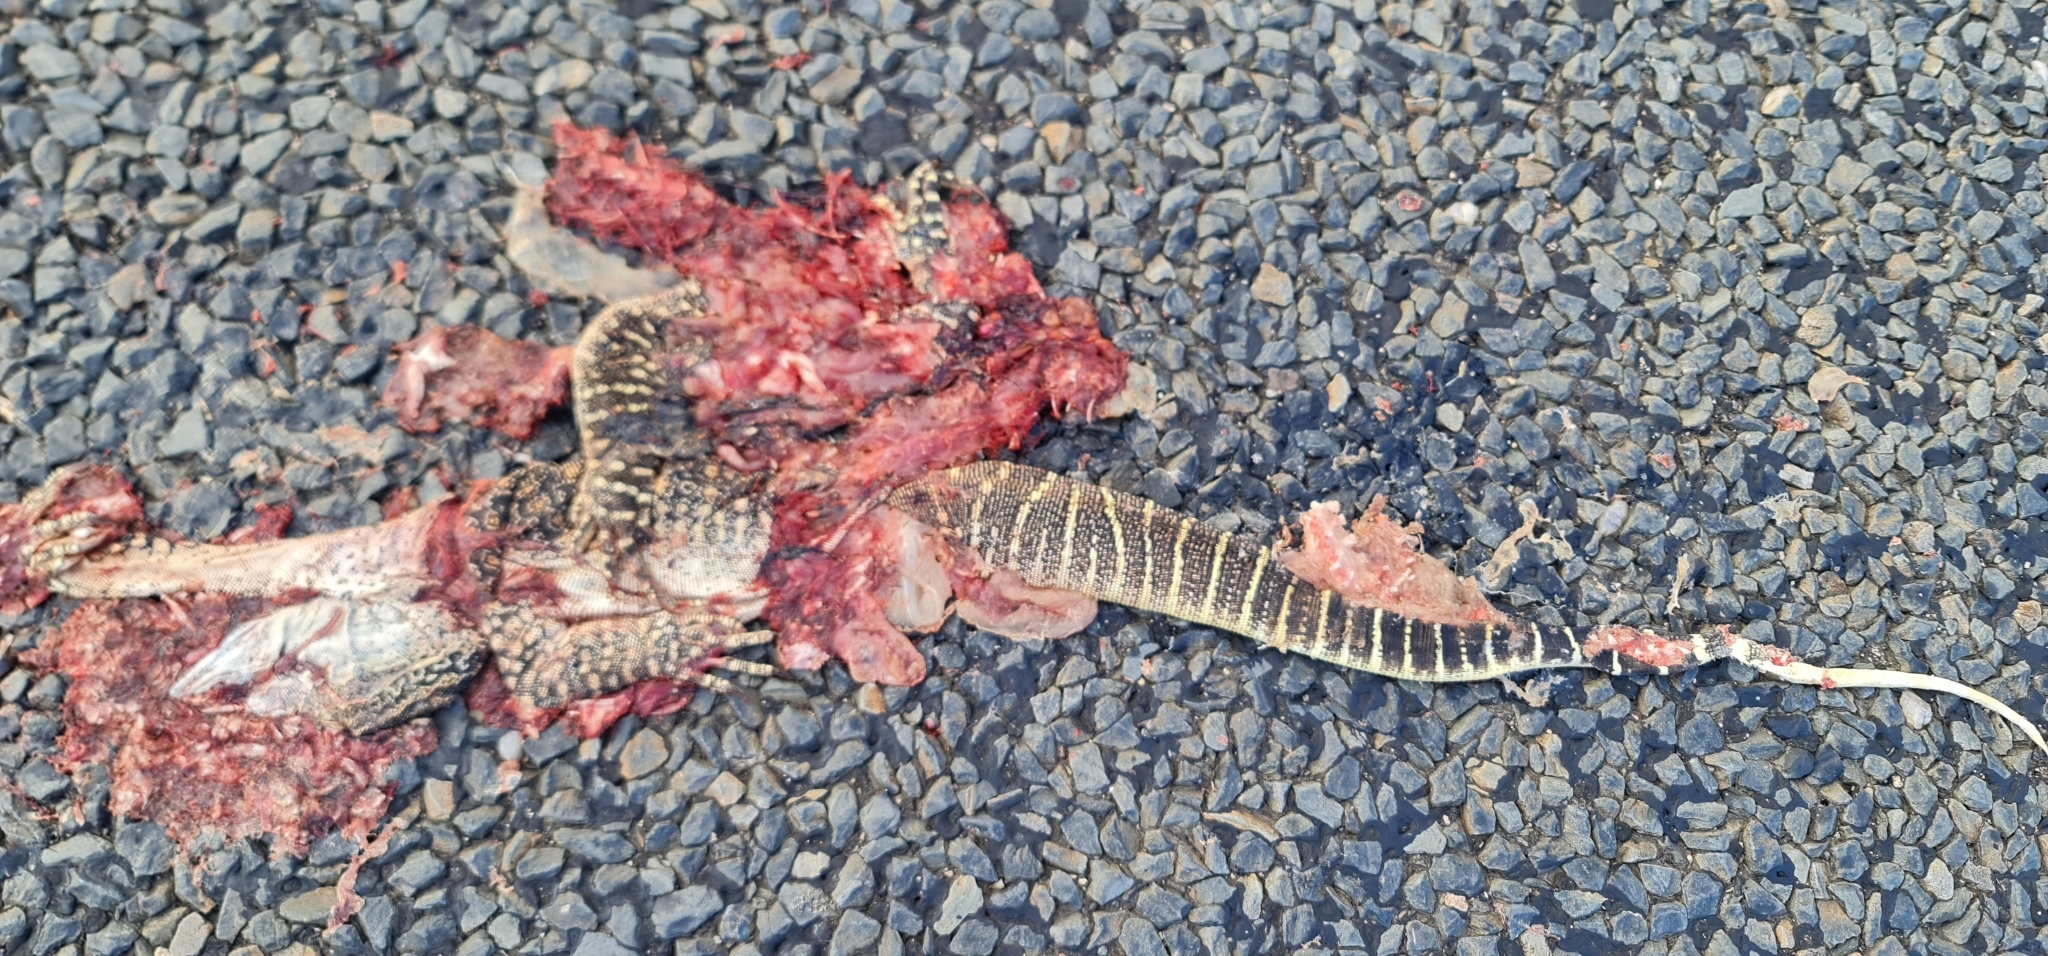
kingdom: Animalia
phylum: Chordata
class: Squamata
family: Varanidae
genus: Varanus
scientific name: Varanus gouldii
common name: Gould's goanna
